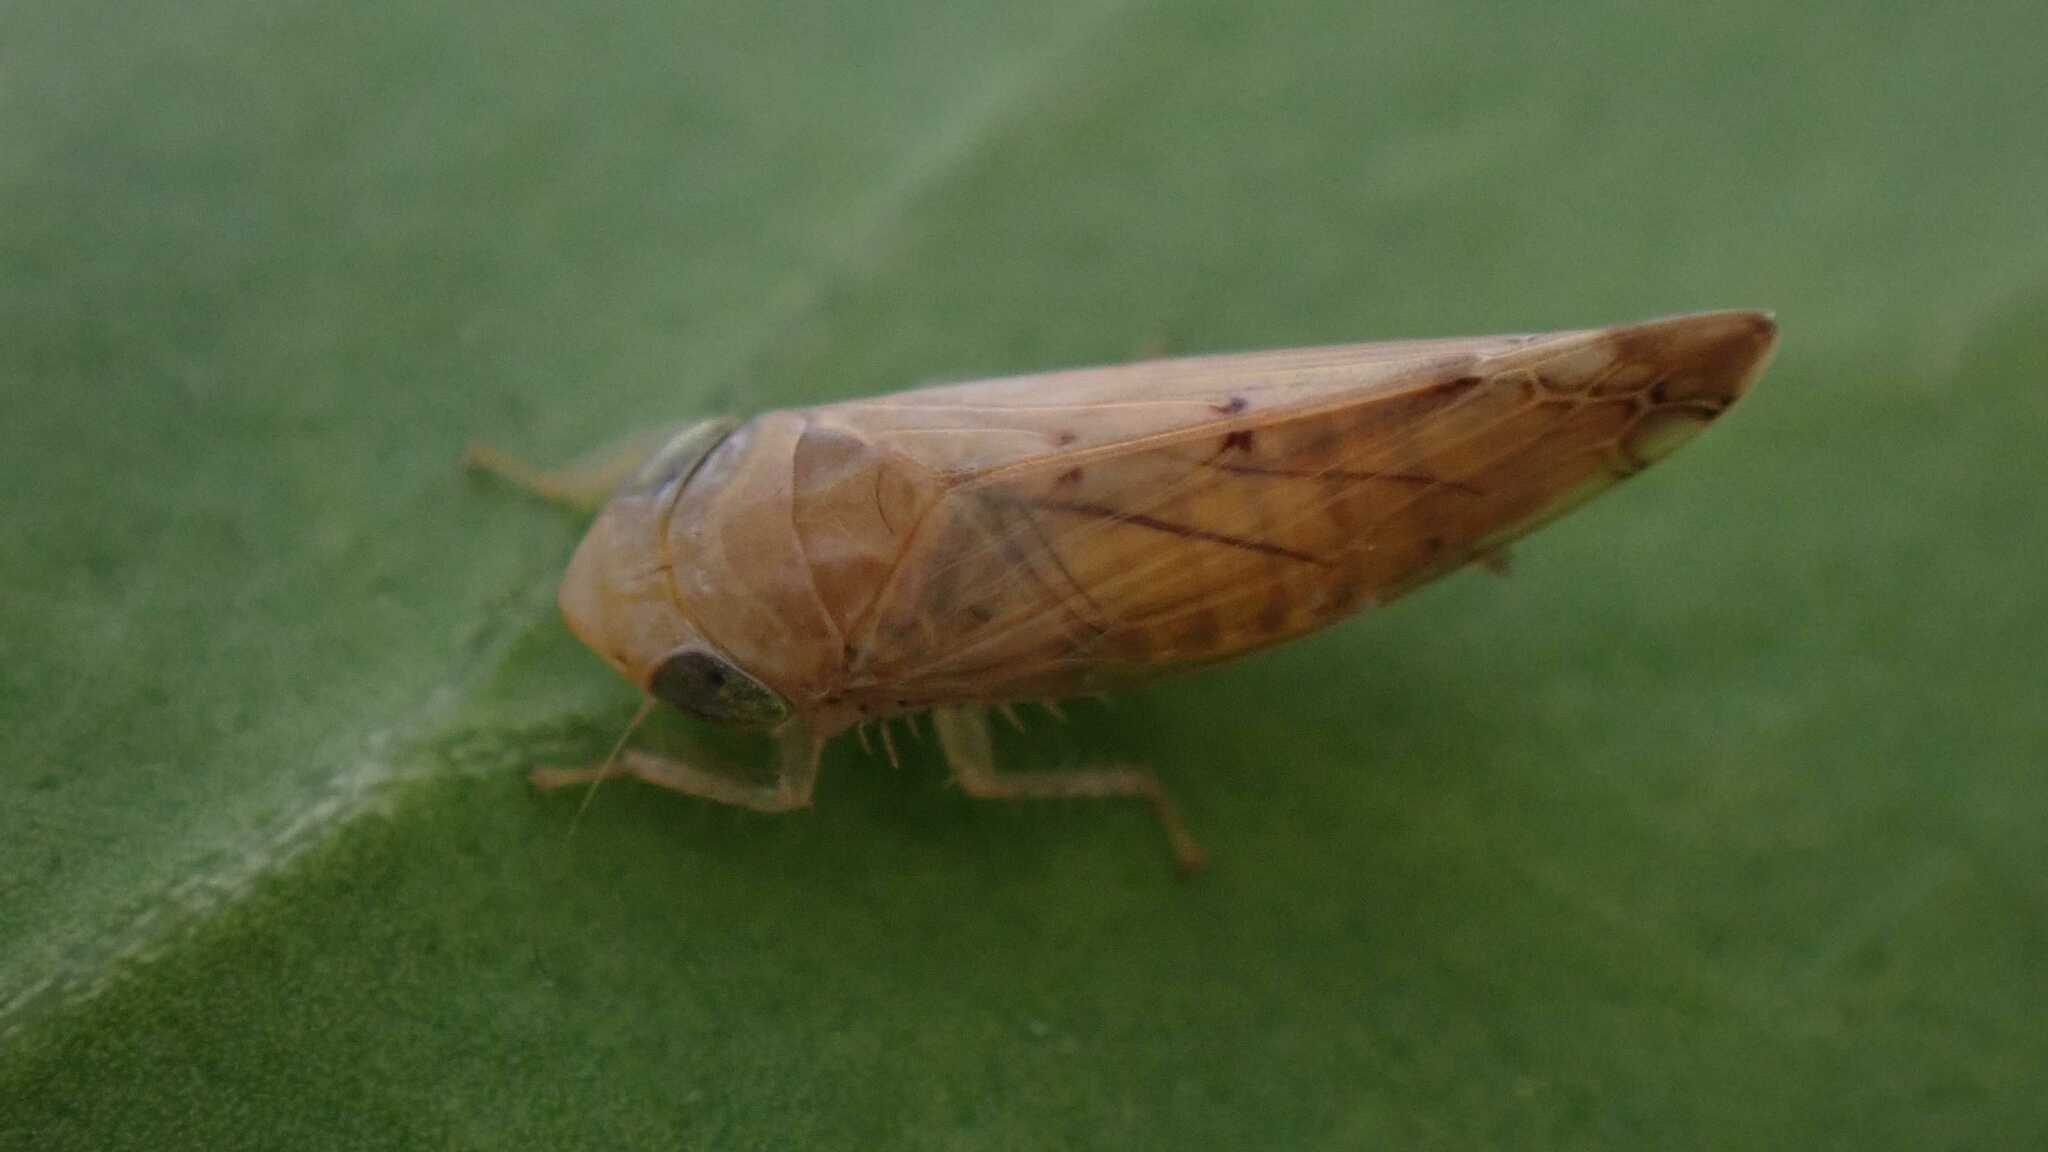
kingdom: Animalia
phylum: Arthropoda
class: Insecta
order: Hemiptera
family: Cicadellidae
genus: Synophropsis
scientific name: Synophropsis lauri
